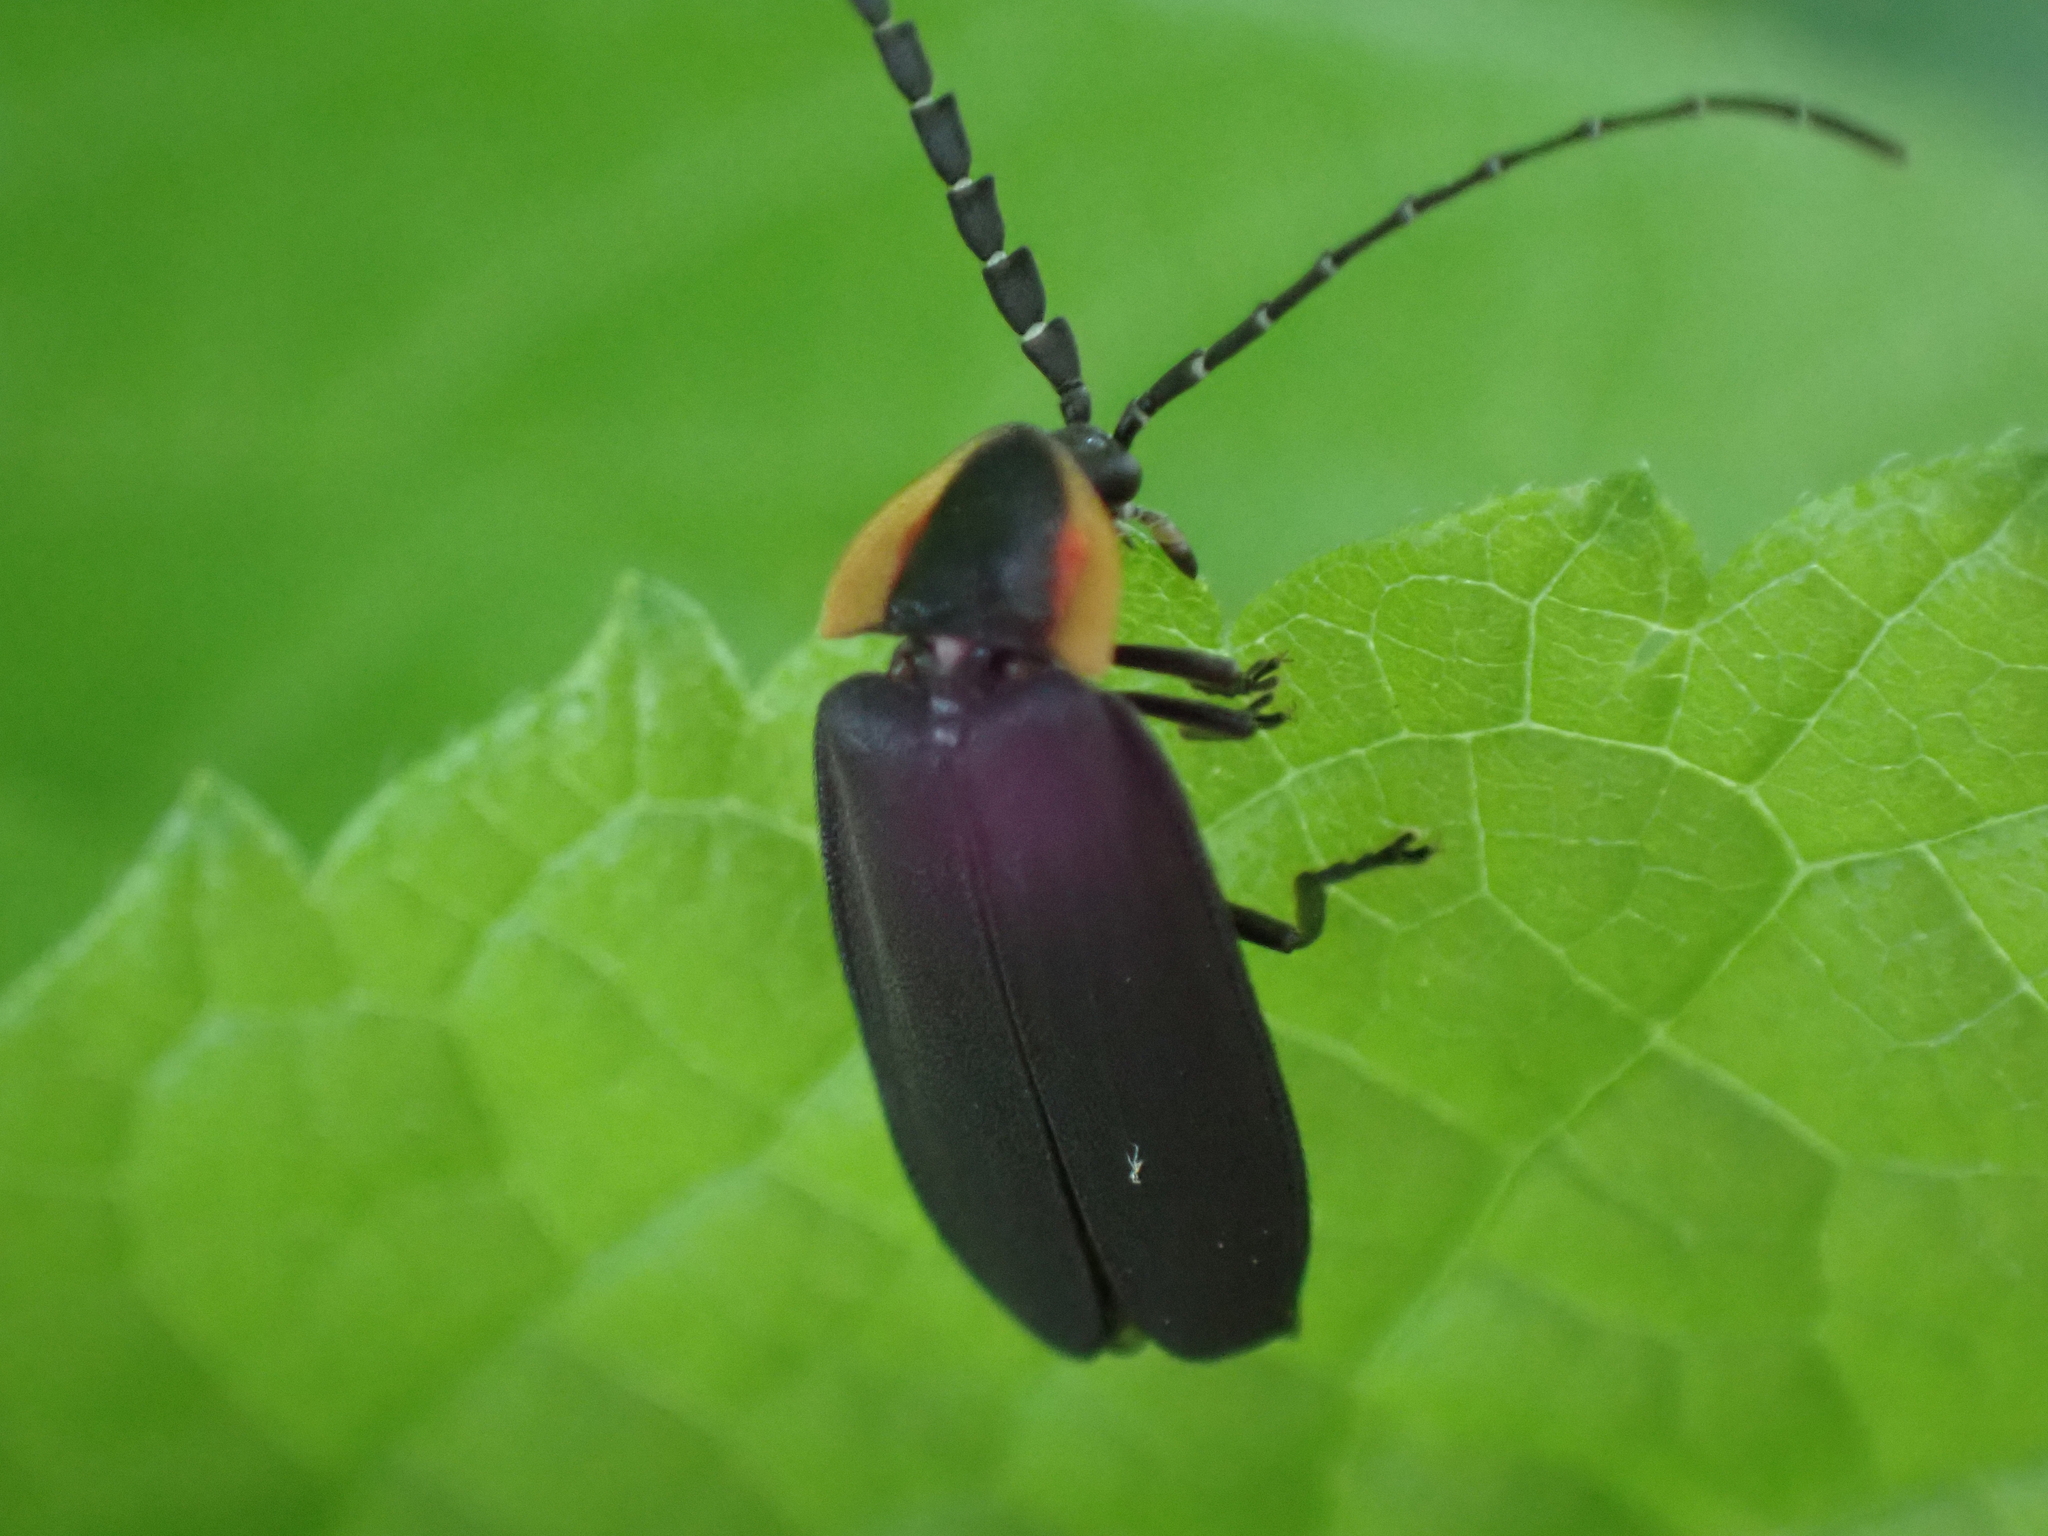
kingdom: Animalia
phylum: Arthropoda
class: Insecta
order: Coleoptera
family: Lampyridae
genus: Lucidota
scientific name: Lucidota atra
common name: Black firefly
